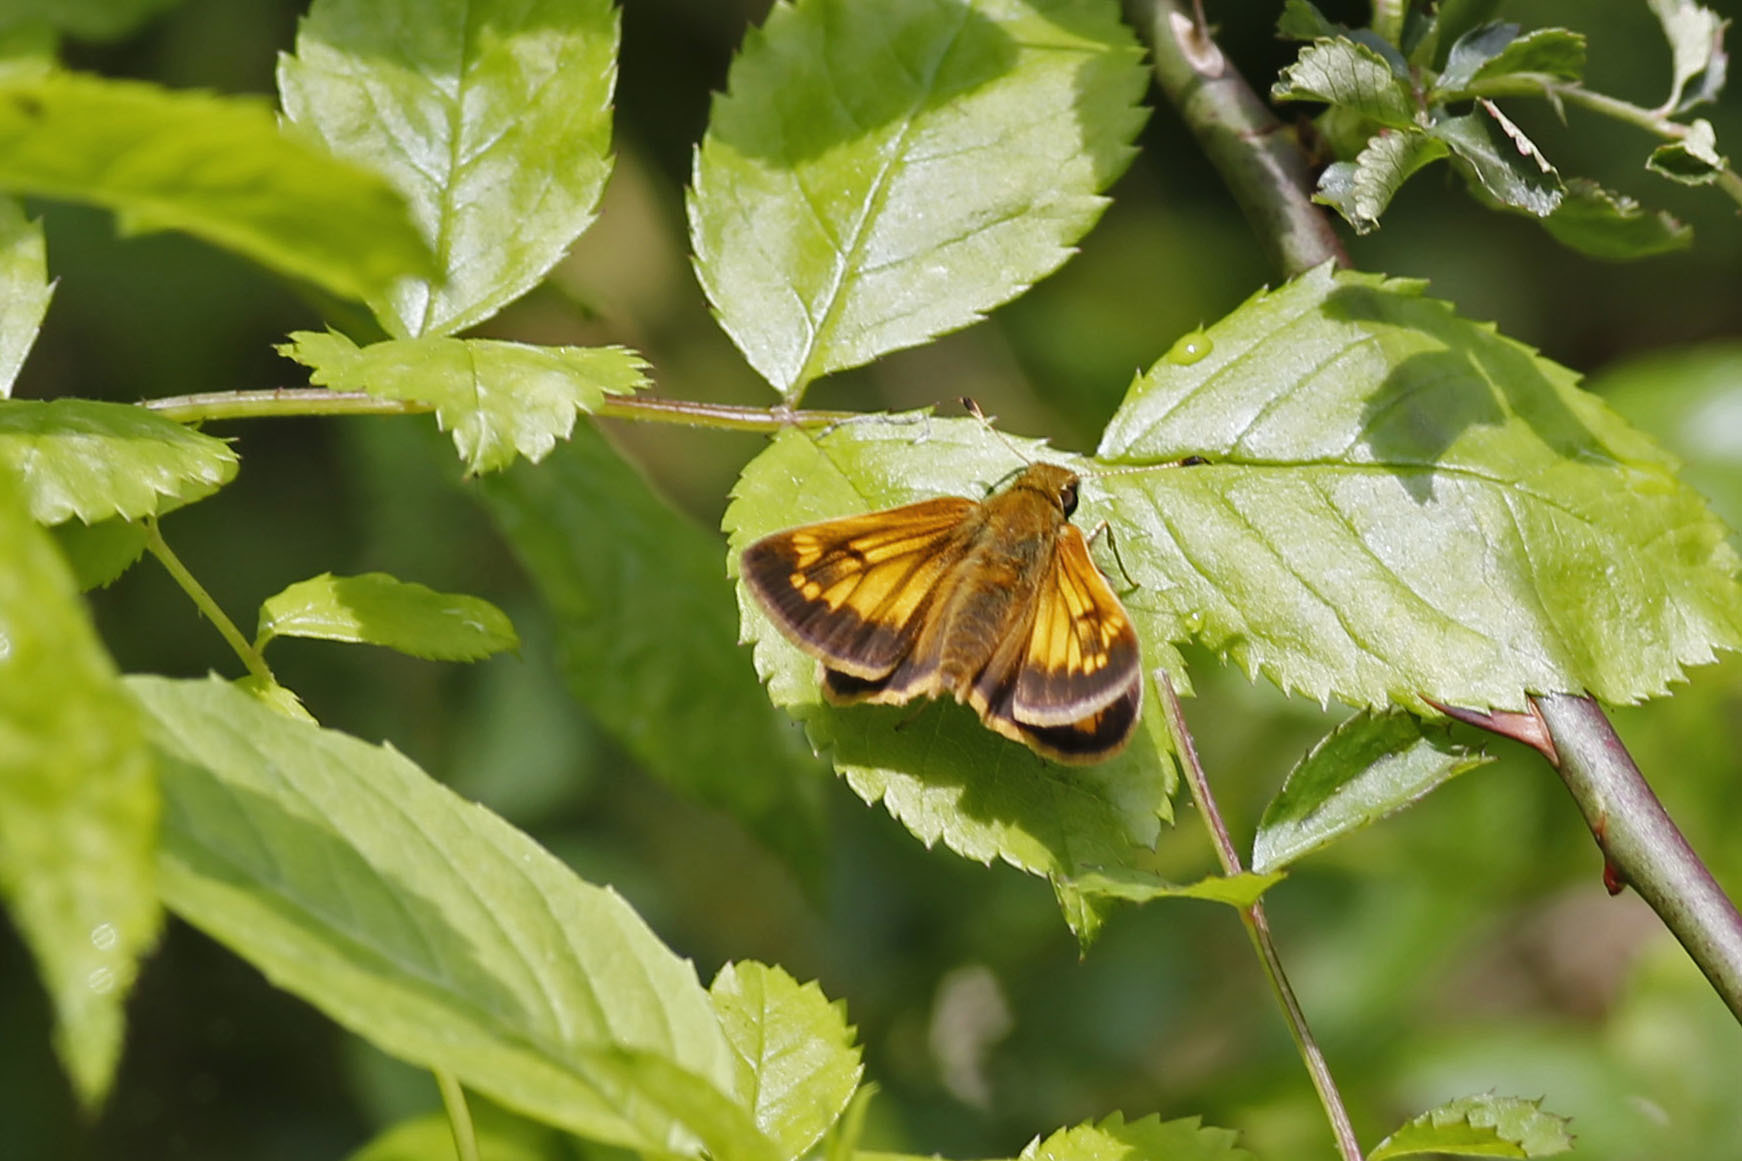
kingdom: Animalia
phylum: Arthropoda
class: Insecta
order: Lepidoptera
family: Hesperiidae
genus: Lon
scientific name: Lon hobomok
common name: Hobomok skipper
